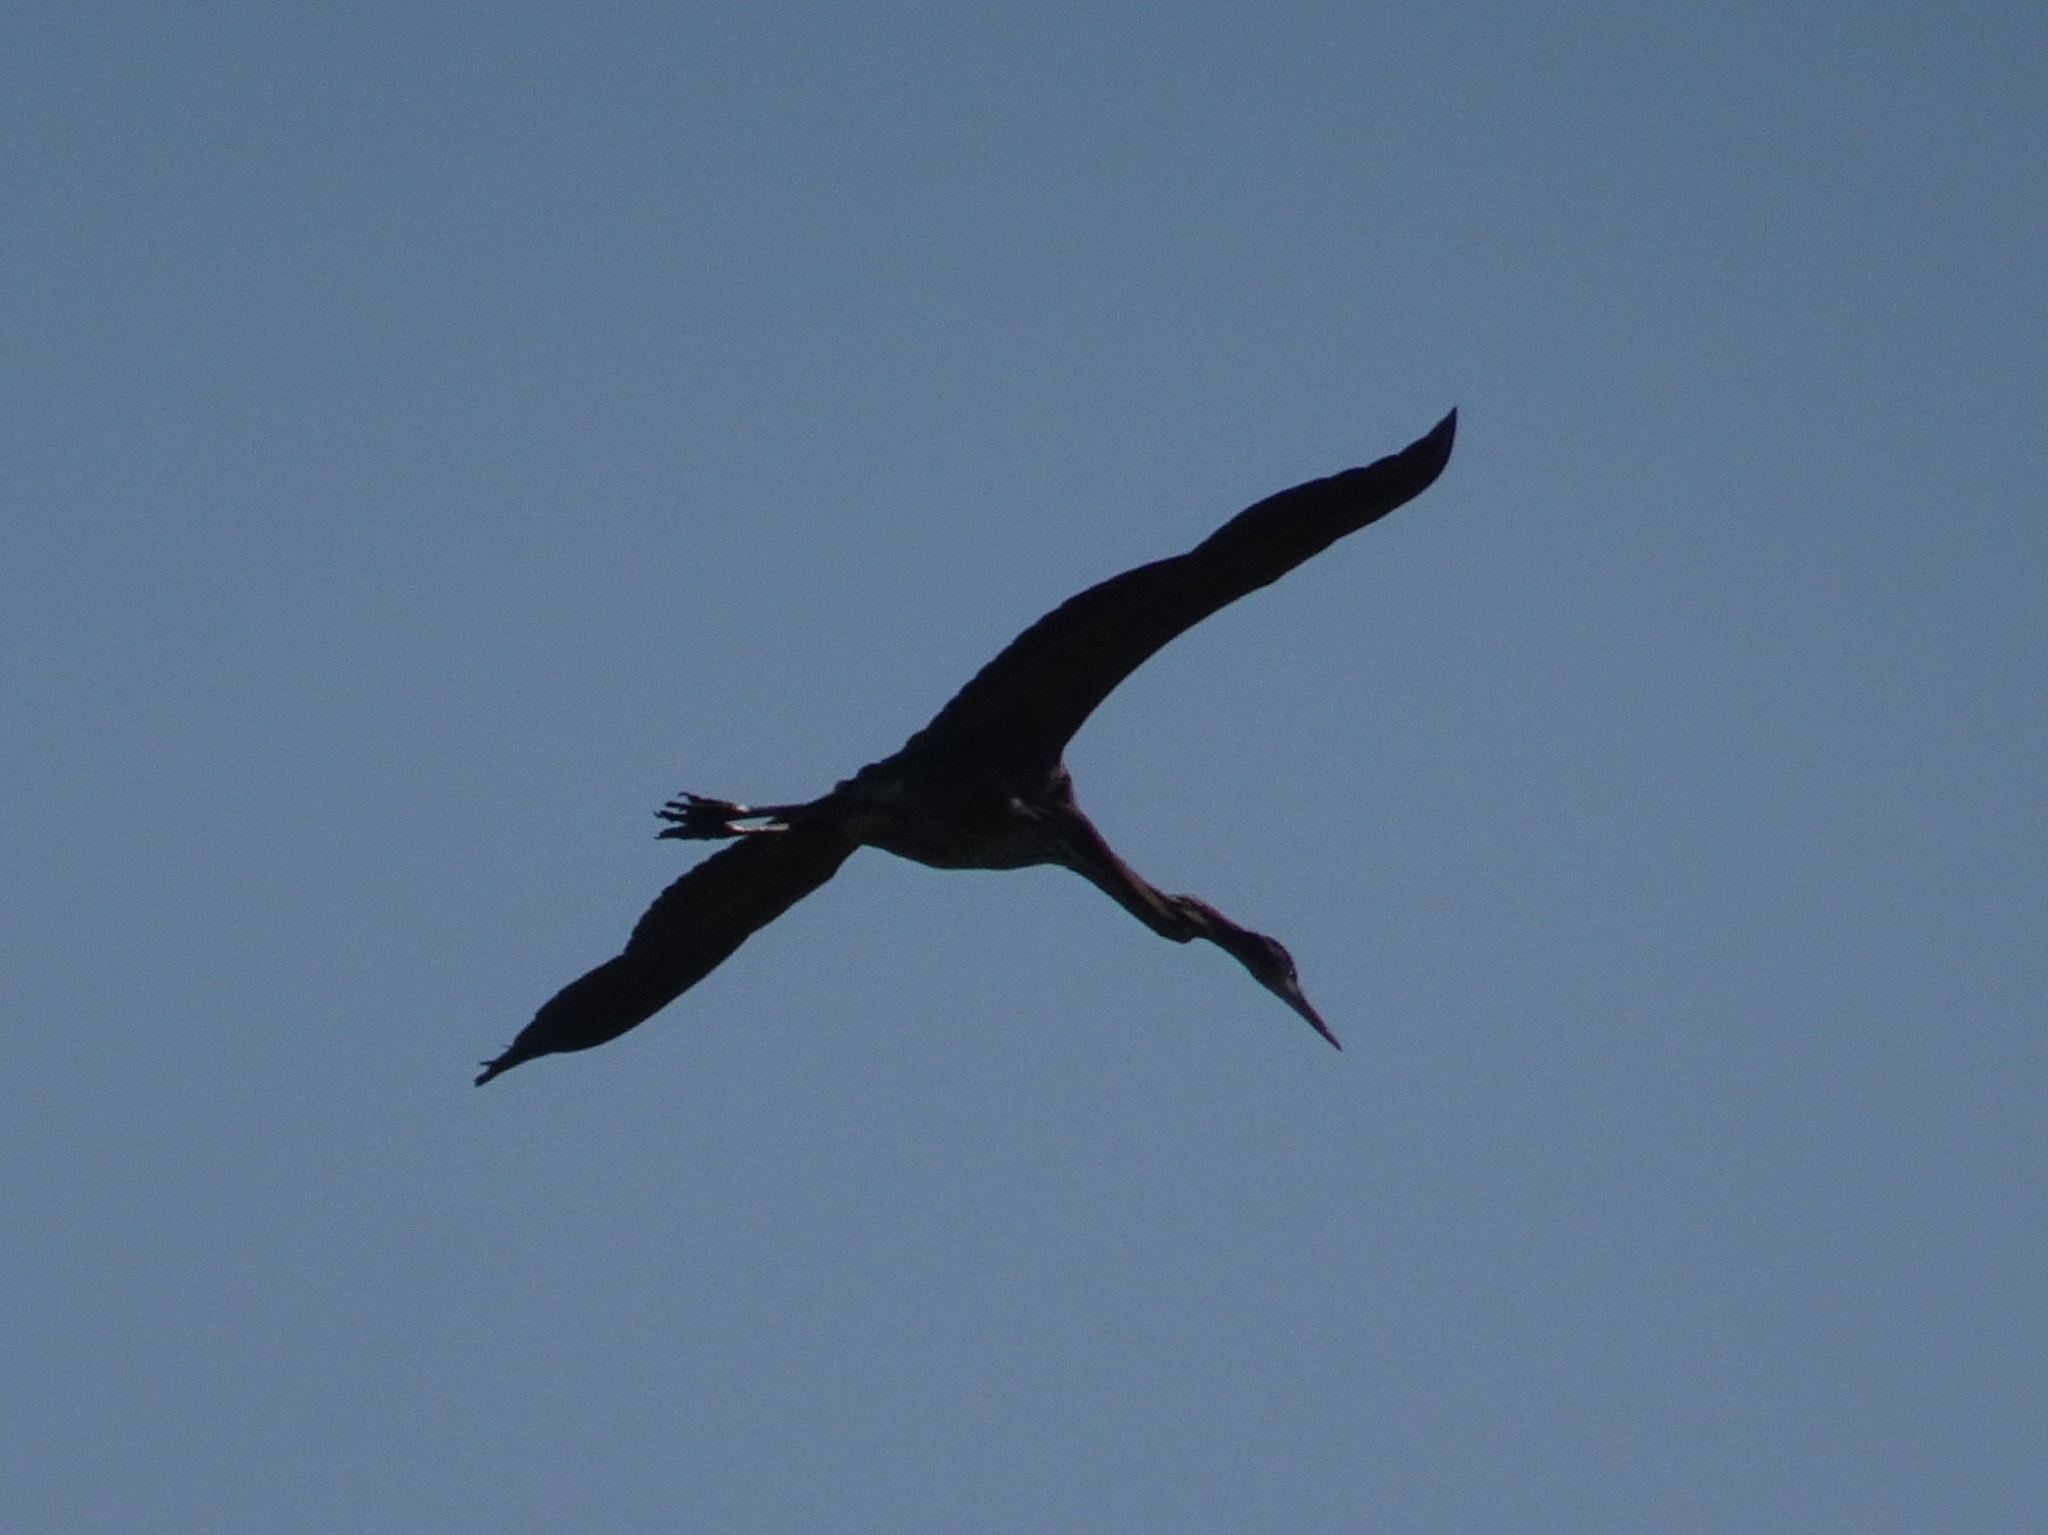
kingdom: Animalia
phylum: Chordata
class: Aves
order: Pelecaniformes
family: Ardeidae
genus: Ardea
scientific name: Ardea herodias
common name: Great blue heron
